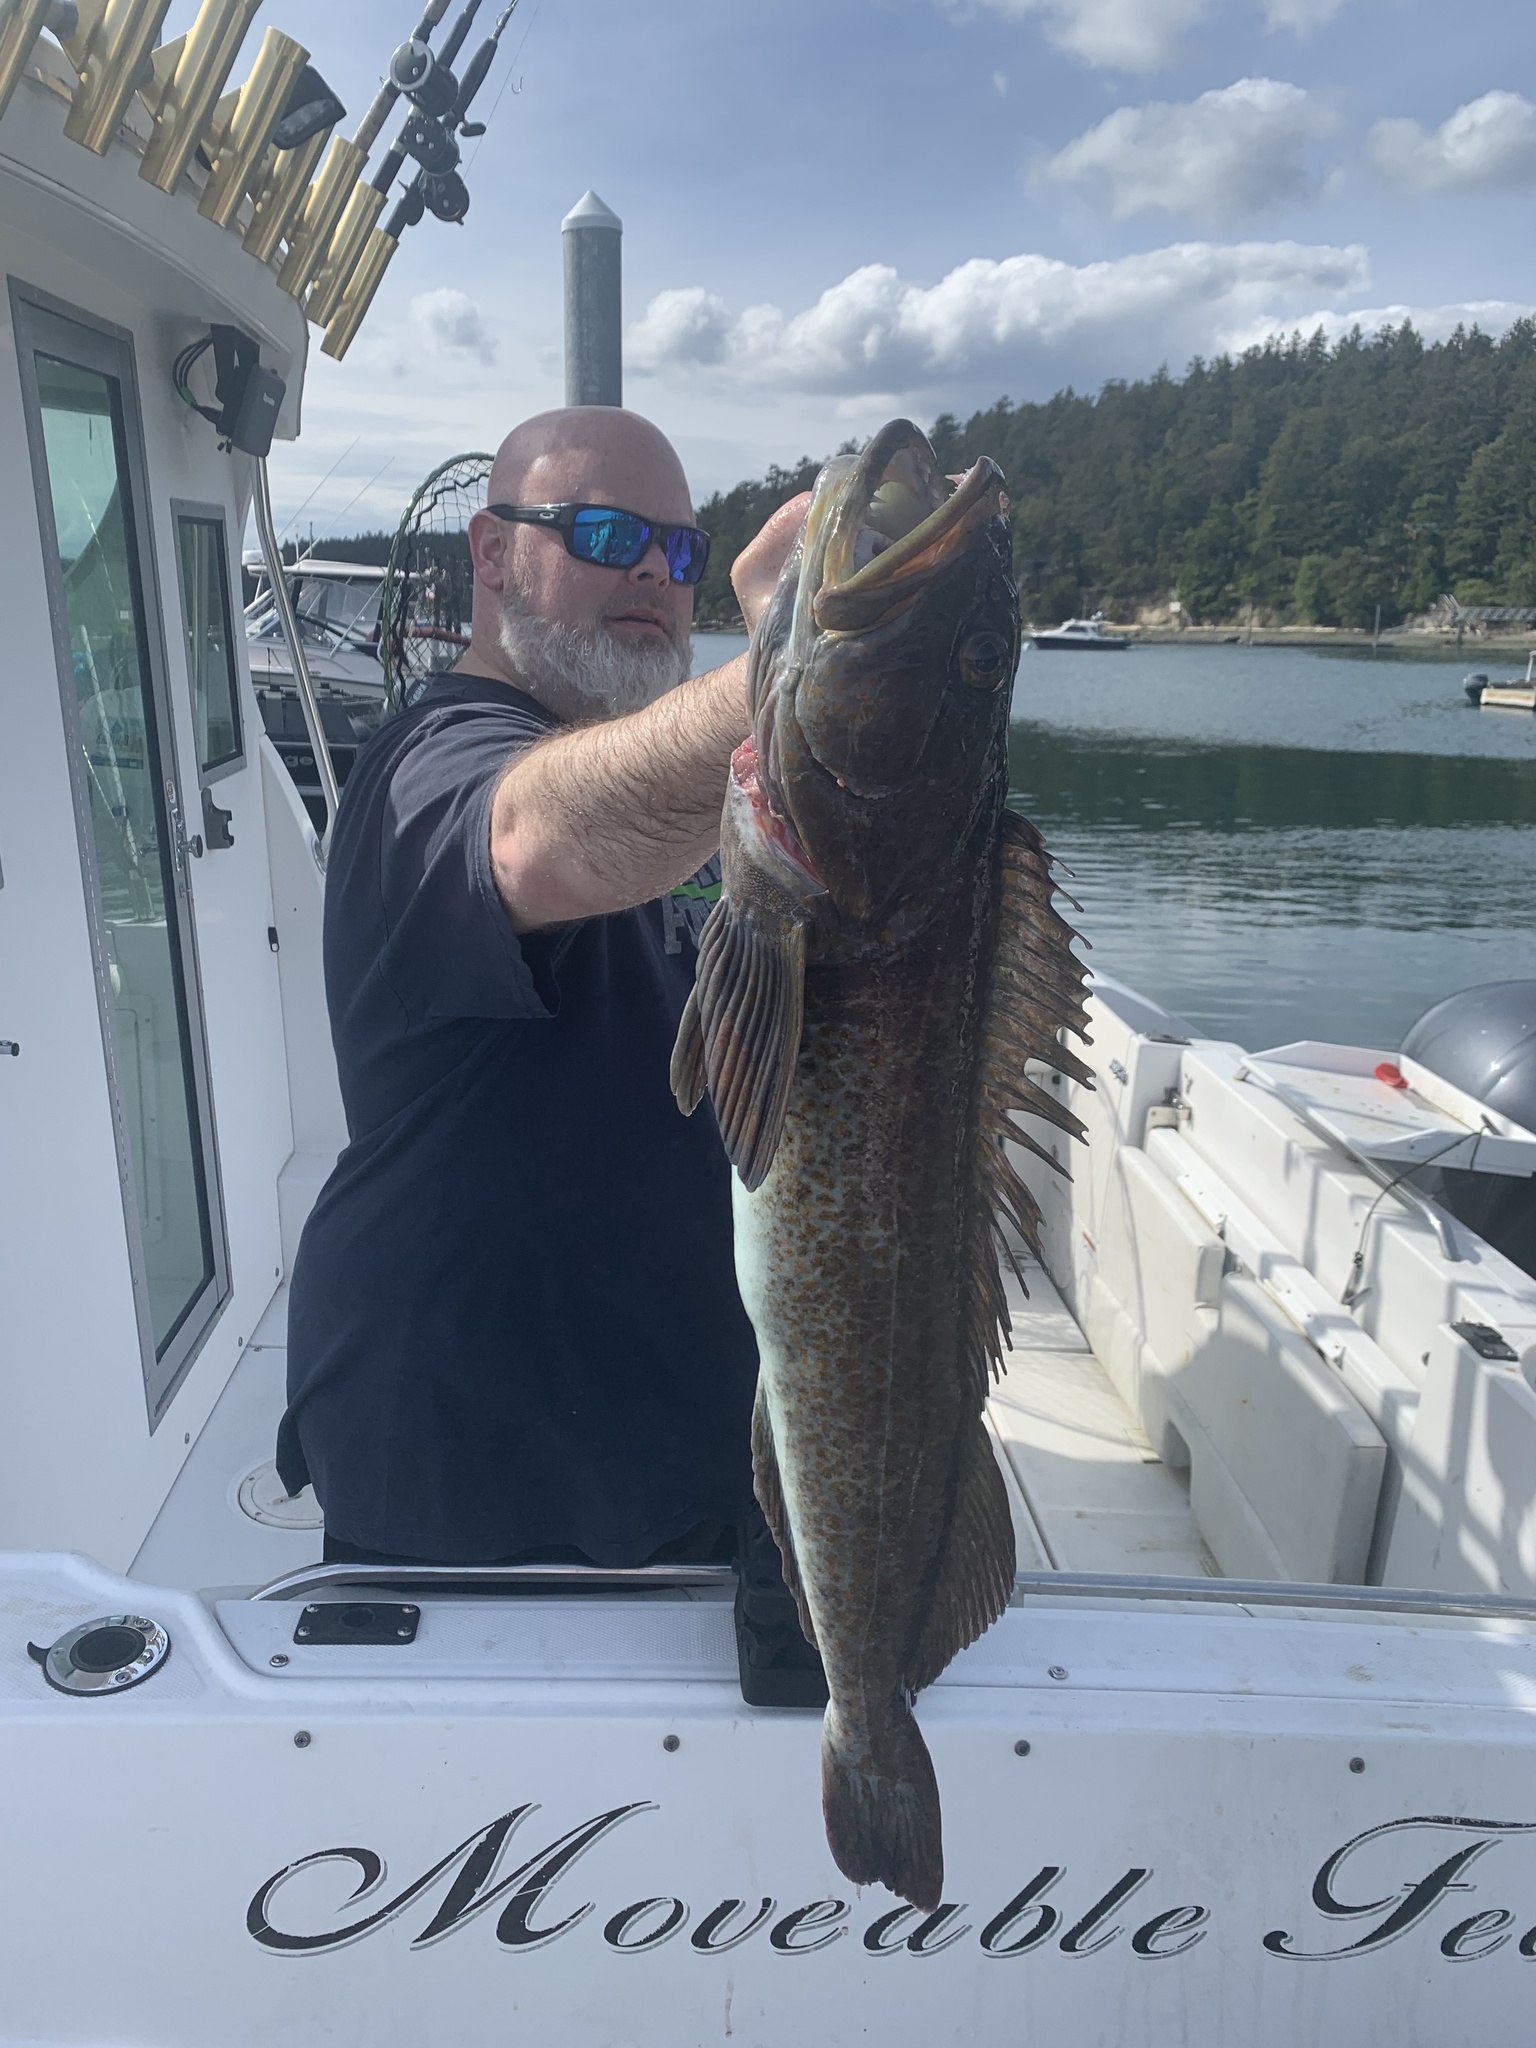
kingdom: Animalia
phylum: Chordata
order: Scorpaeniformes
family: Hexagrammidae
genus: Ophiodon
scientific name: Ophiodon elongatus
